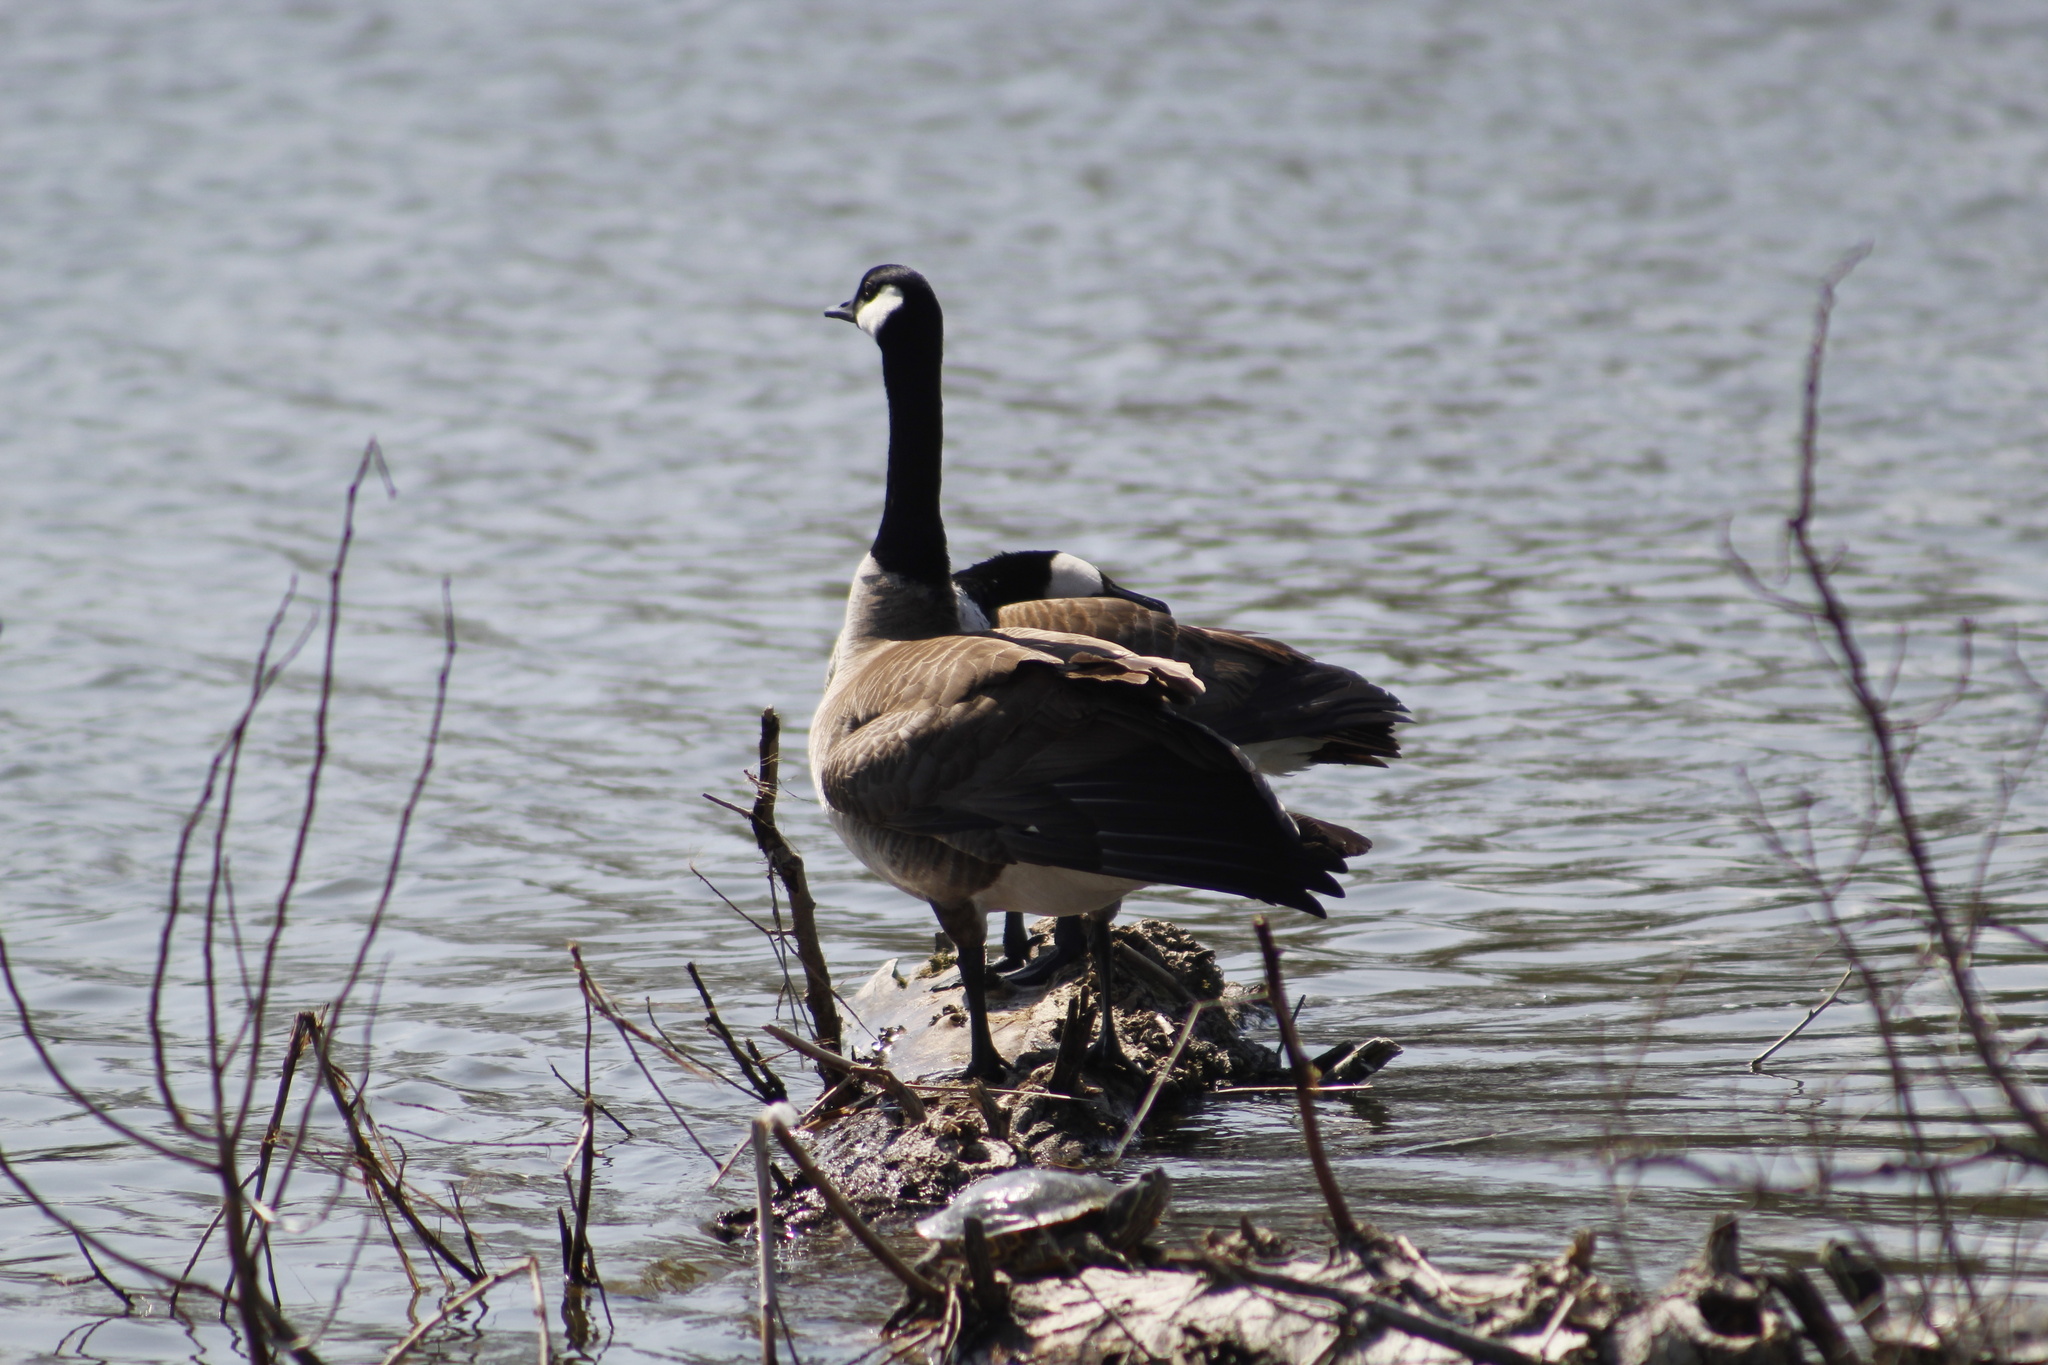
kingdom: Animalia
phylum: Chordata
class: Aves
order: Anseriformes
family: Anatidae
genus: Branta
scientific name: Branta canadensis
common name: Canada goose
